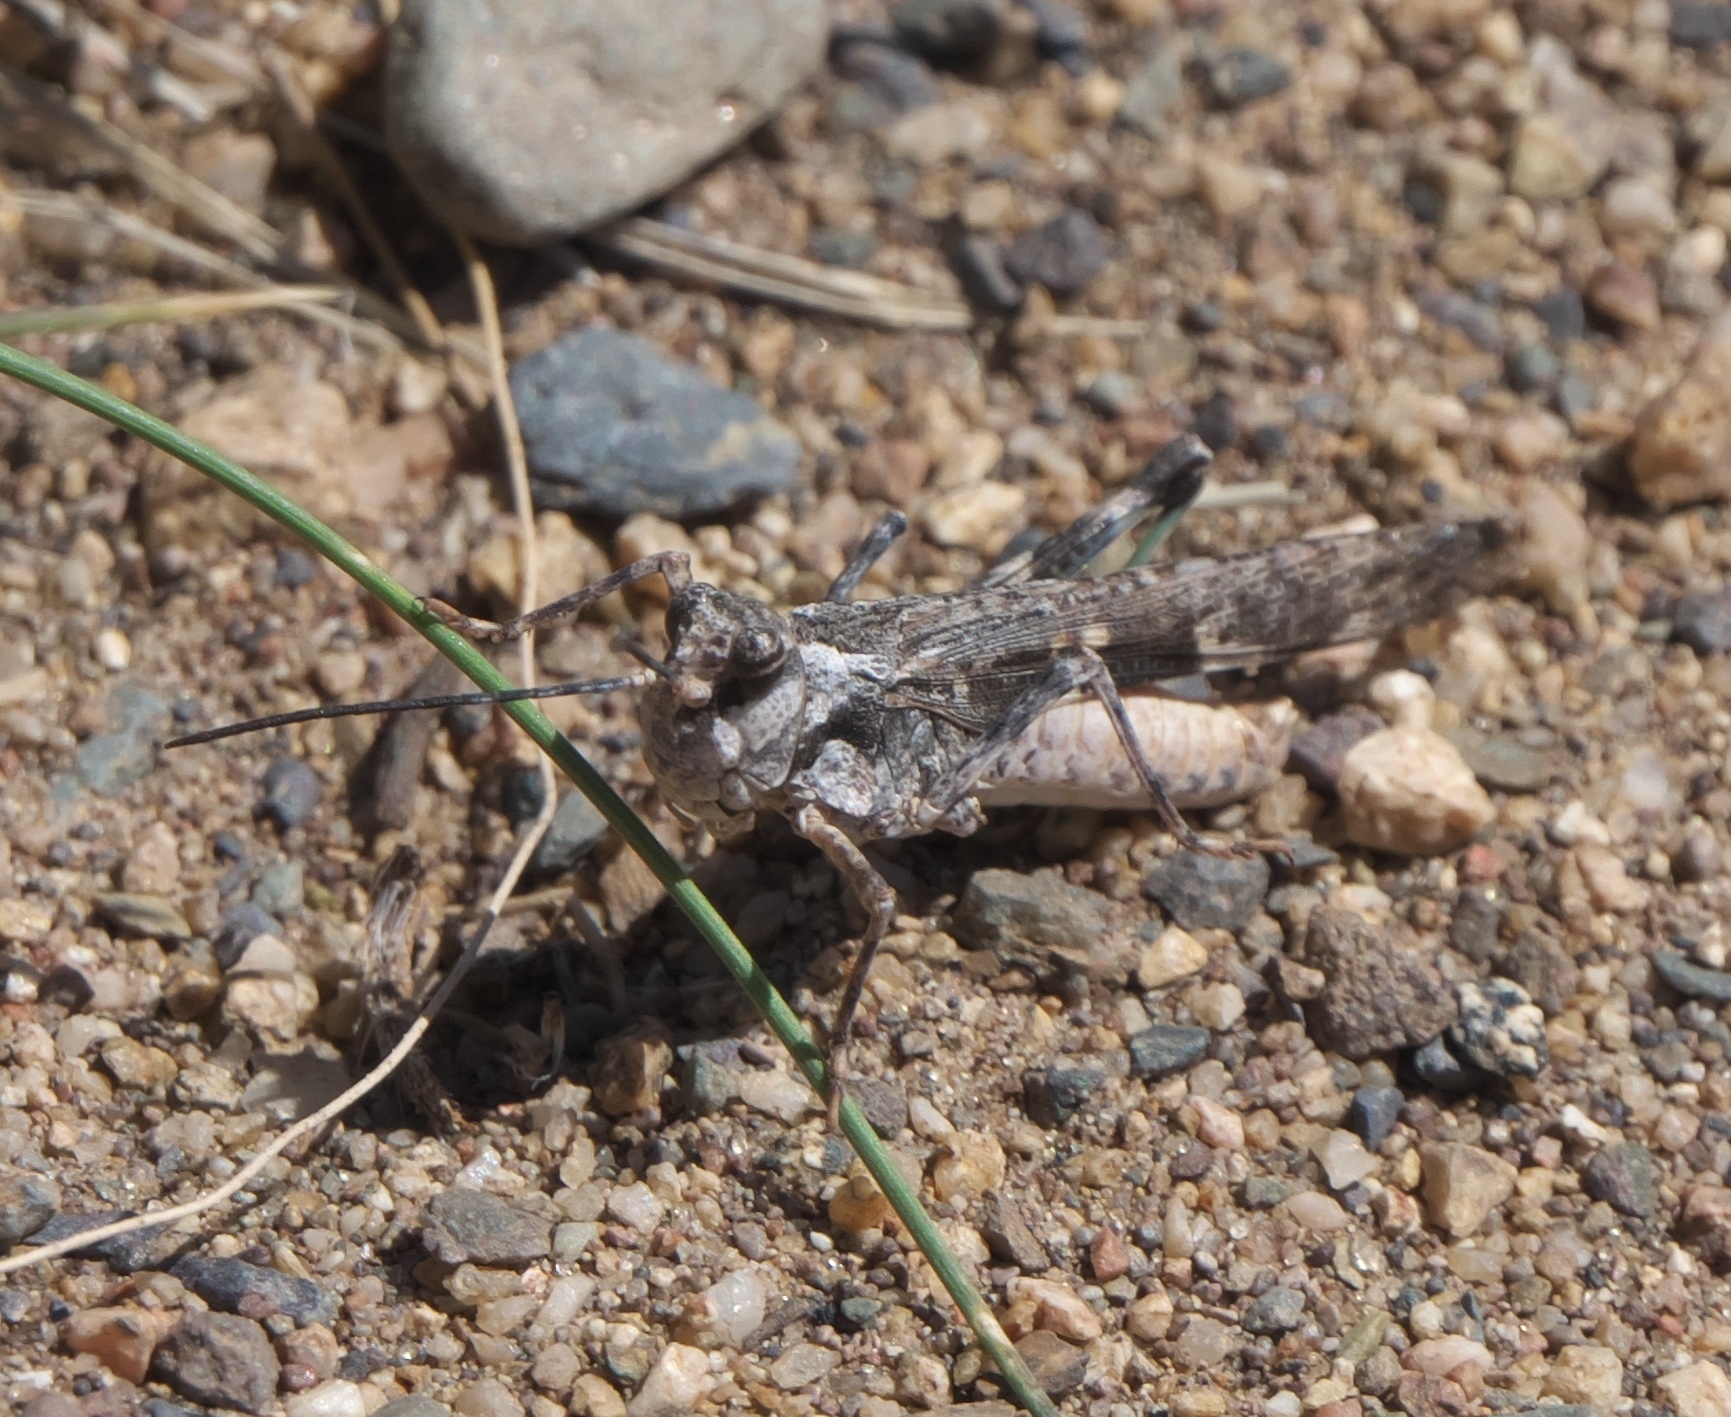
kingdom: Animalia
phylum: Arthropoda
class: Insecta
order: Orthoptera
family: Acrididae
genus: Mestobregma
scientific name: Mestobregma plattei
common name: Platte range grasshopper
